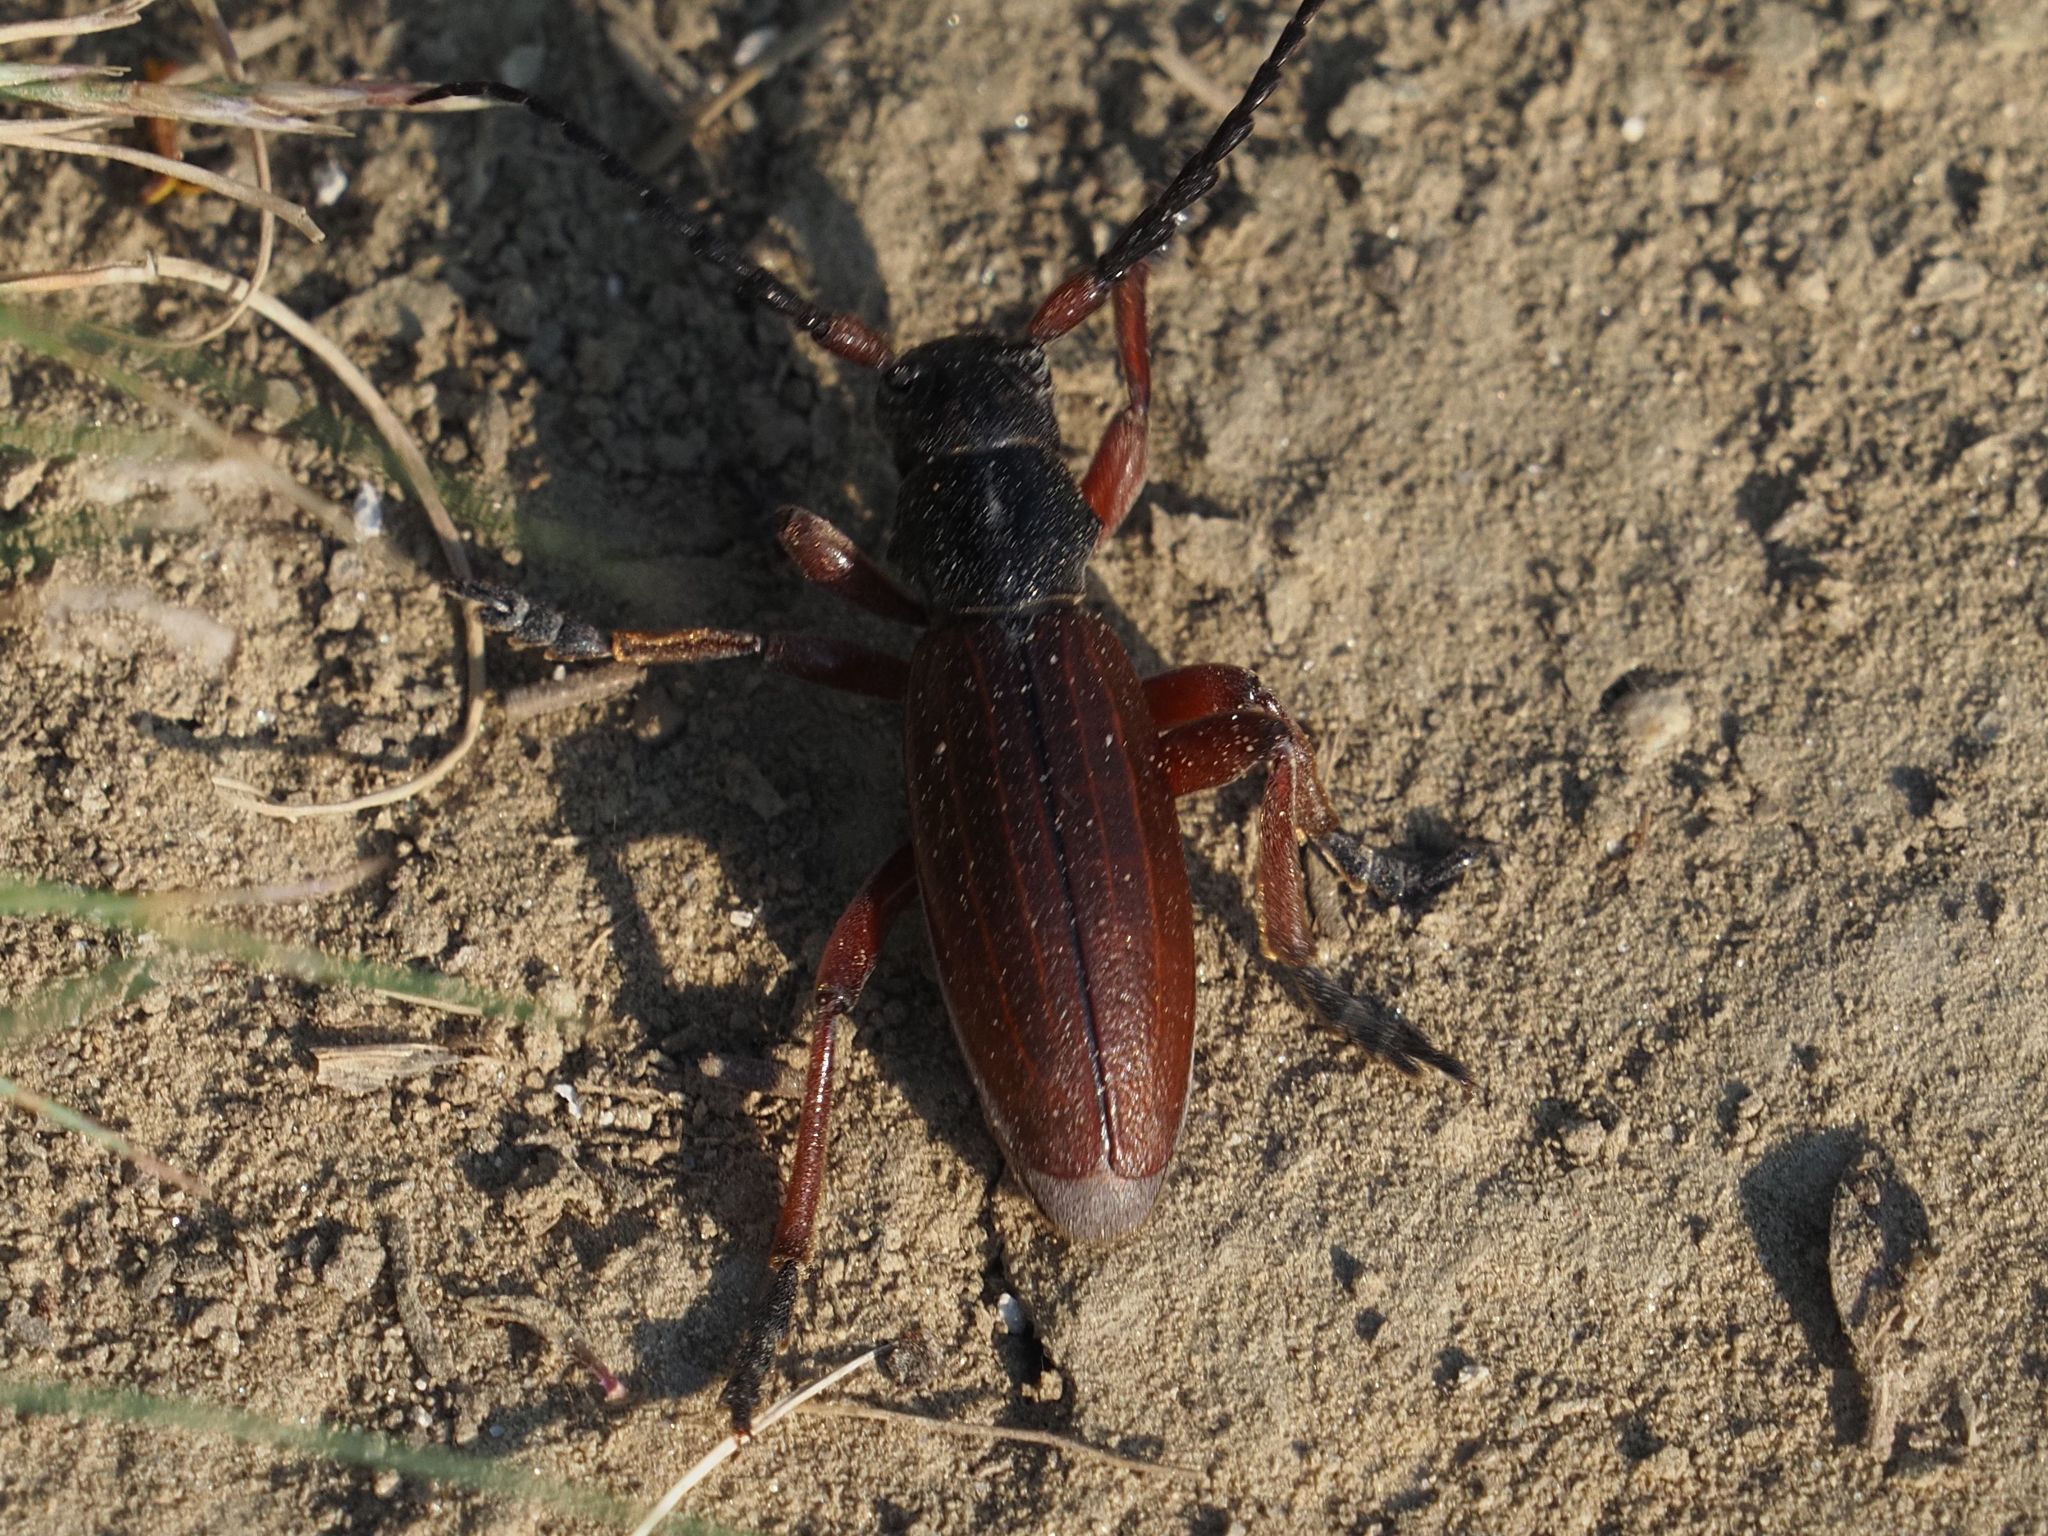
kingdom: Animalia
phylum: Arthropoda
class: Insecta
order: Coleoptera
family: Cerambycidae
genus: Dorcadion
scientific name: Dorcadion fulvum
